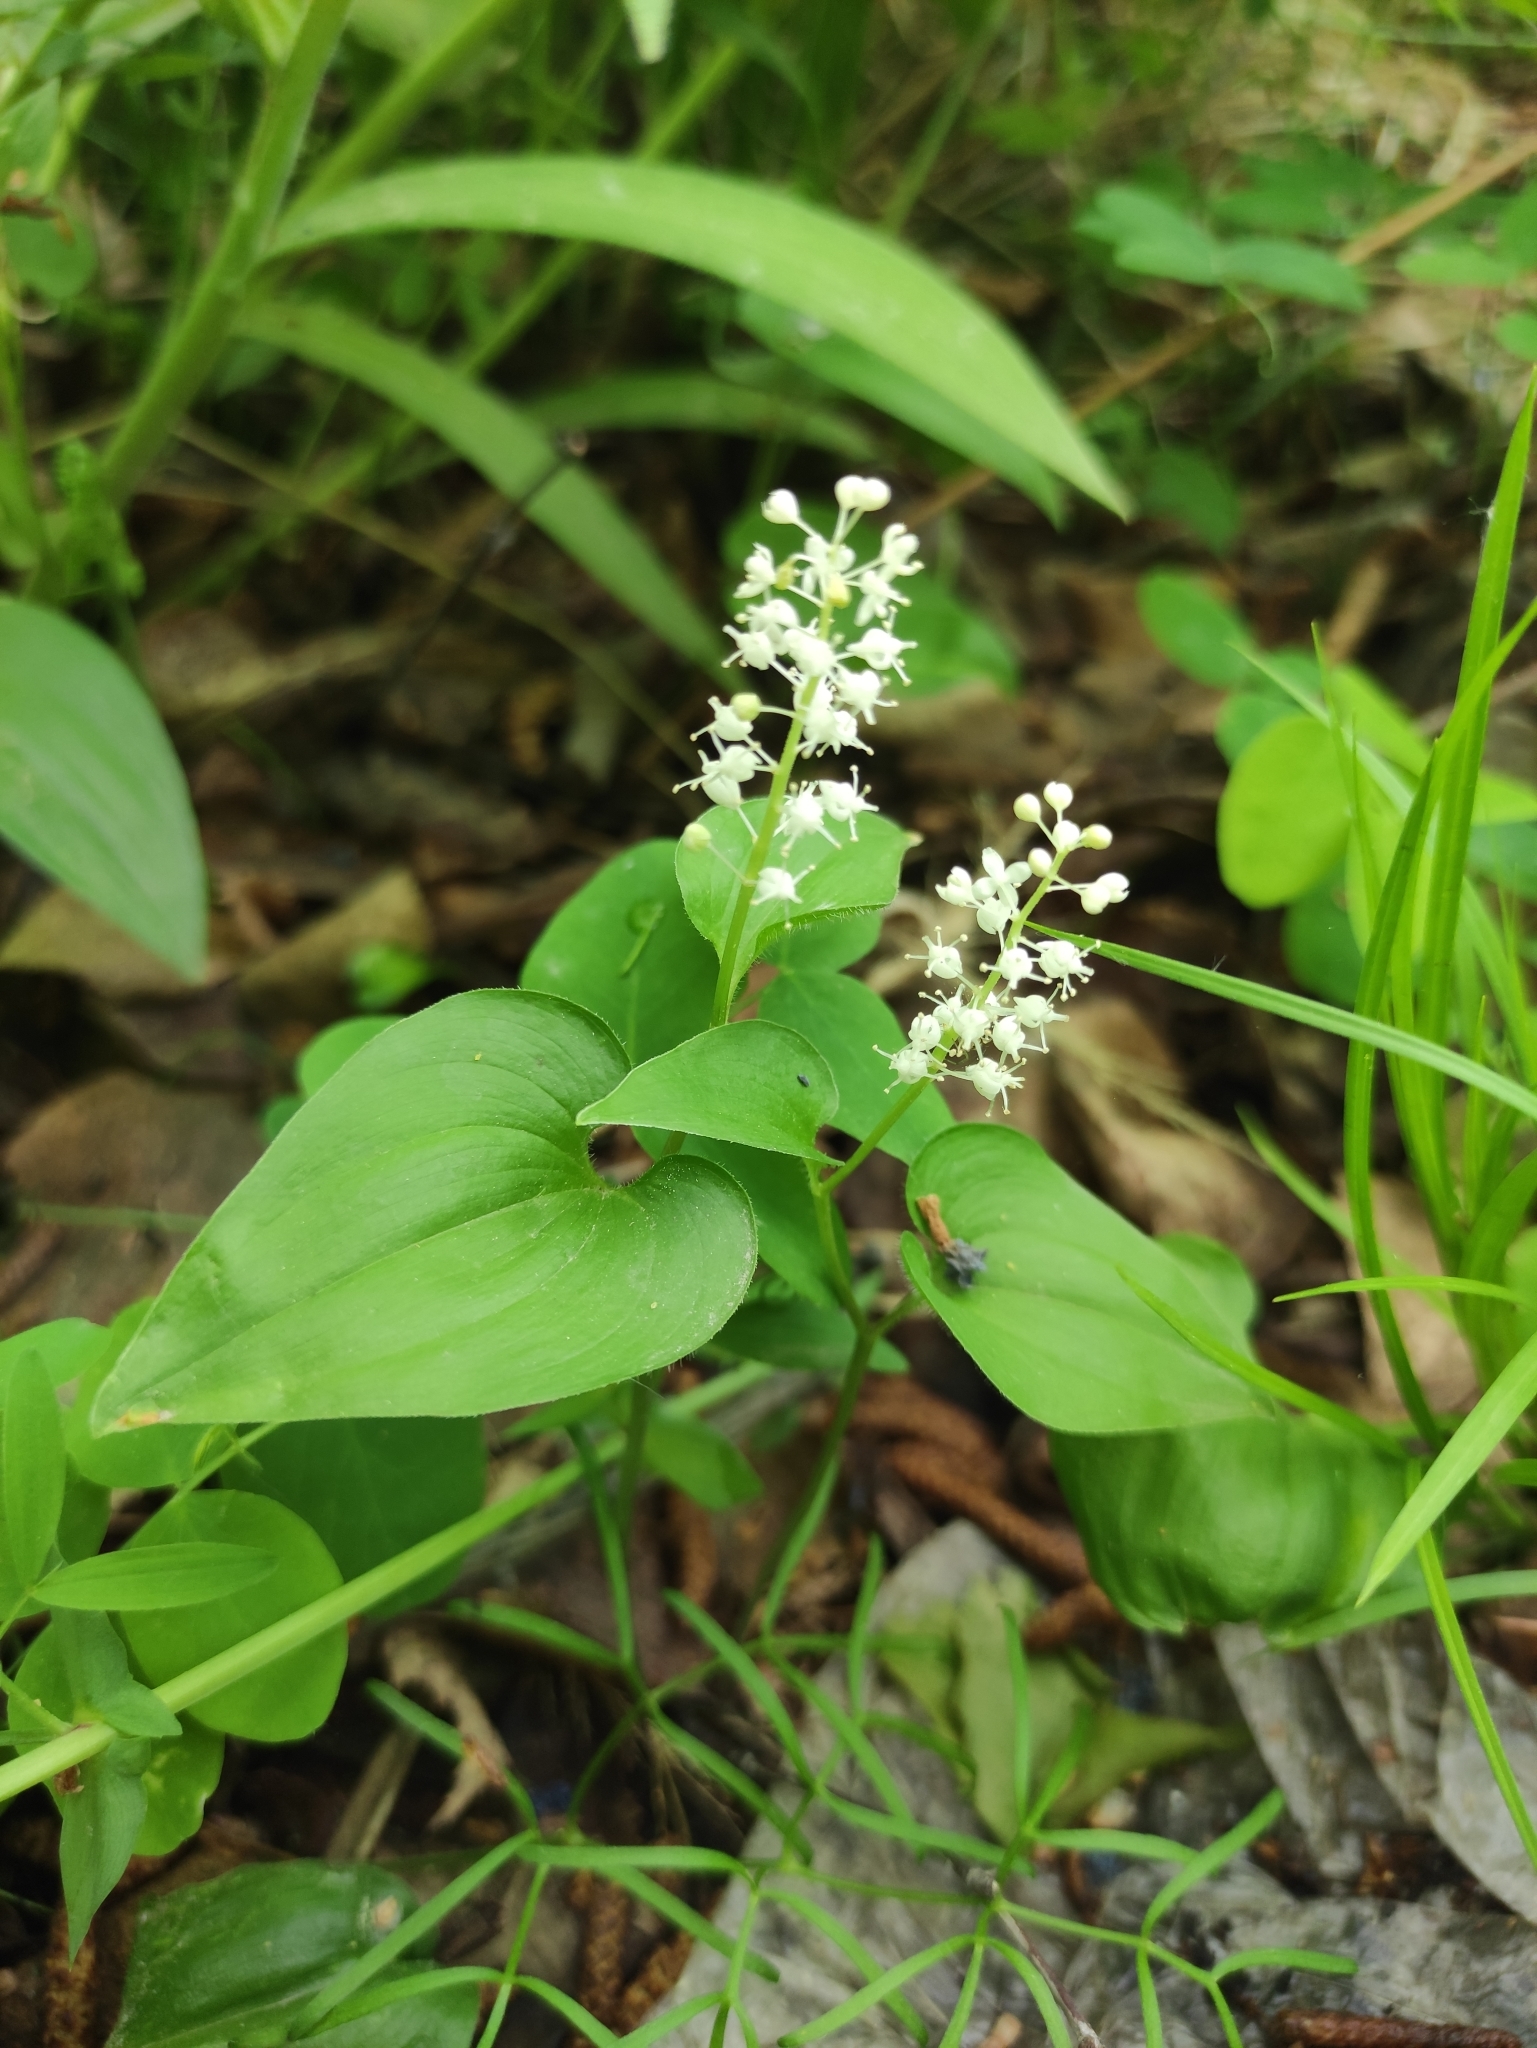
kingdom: Plantae
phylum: Tracheophyta
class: Liliopsida
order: Asparagales
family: Asparagaceae
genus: Maianthemum
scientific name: Maianthemum bifolium
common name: May lily
